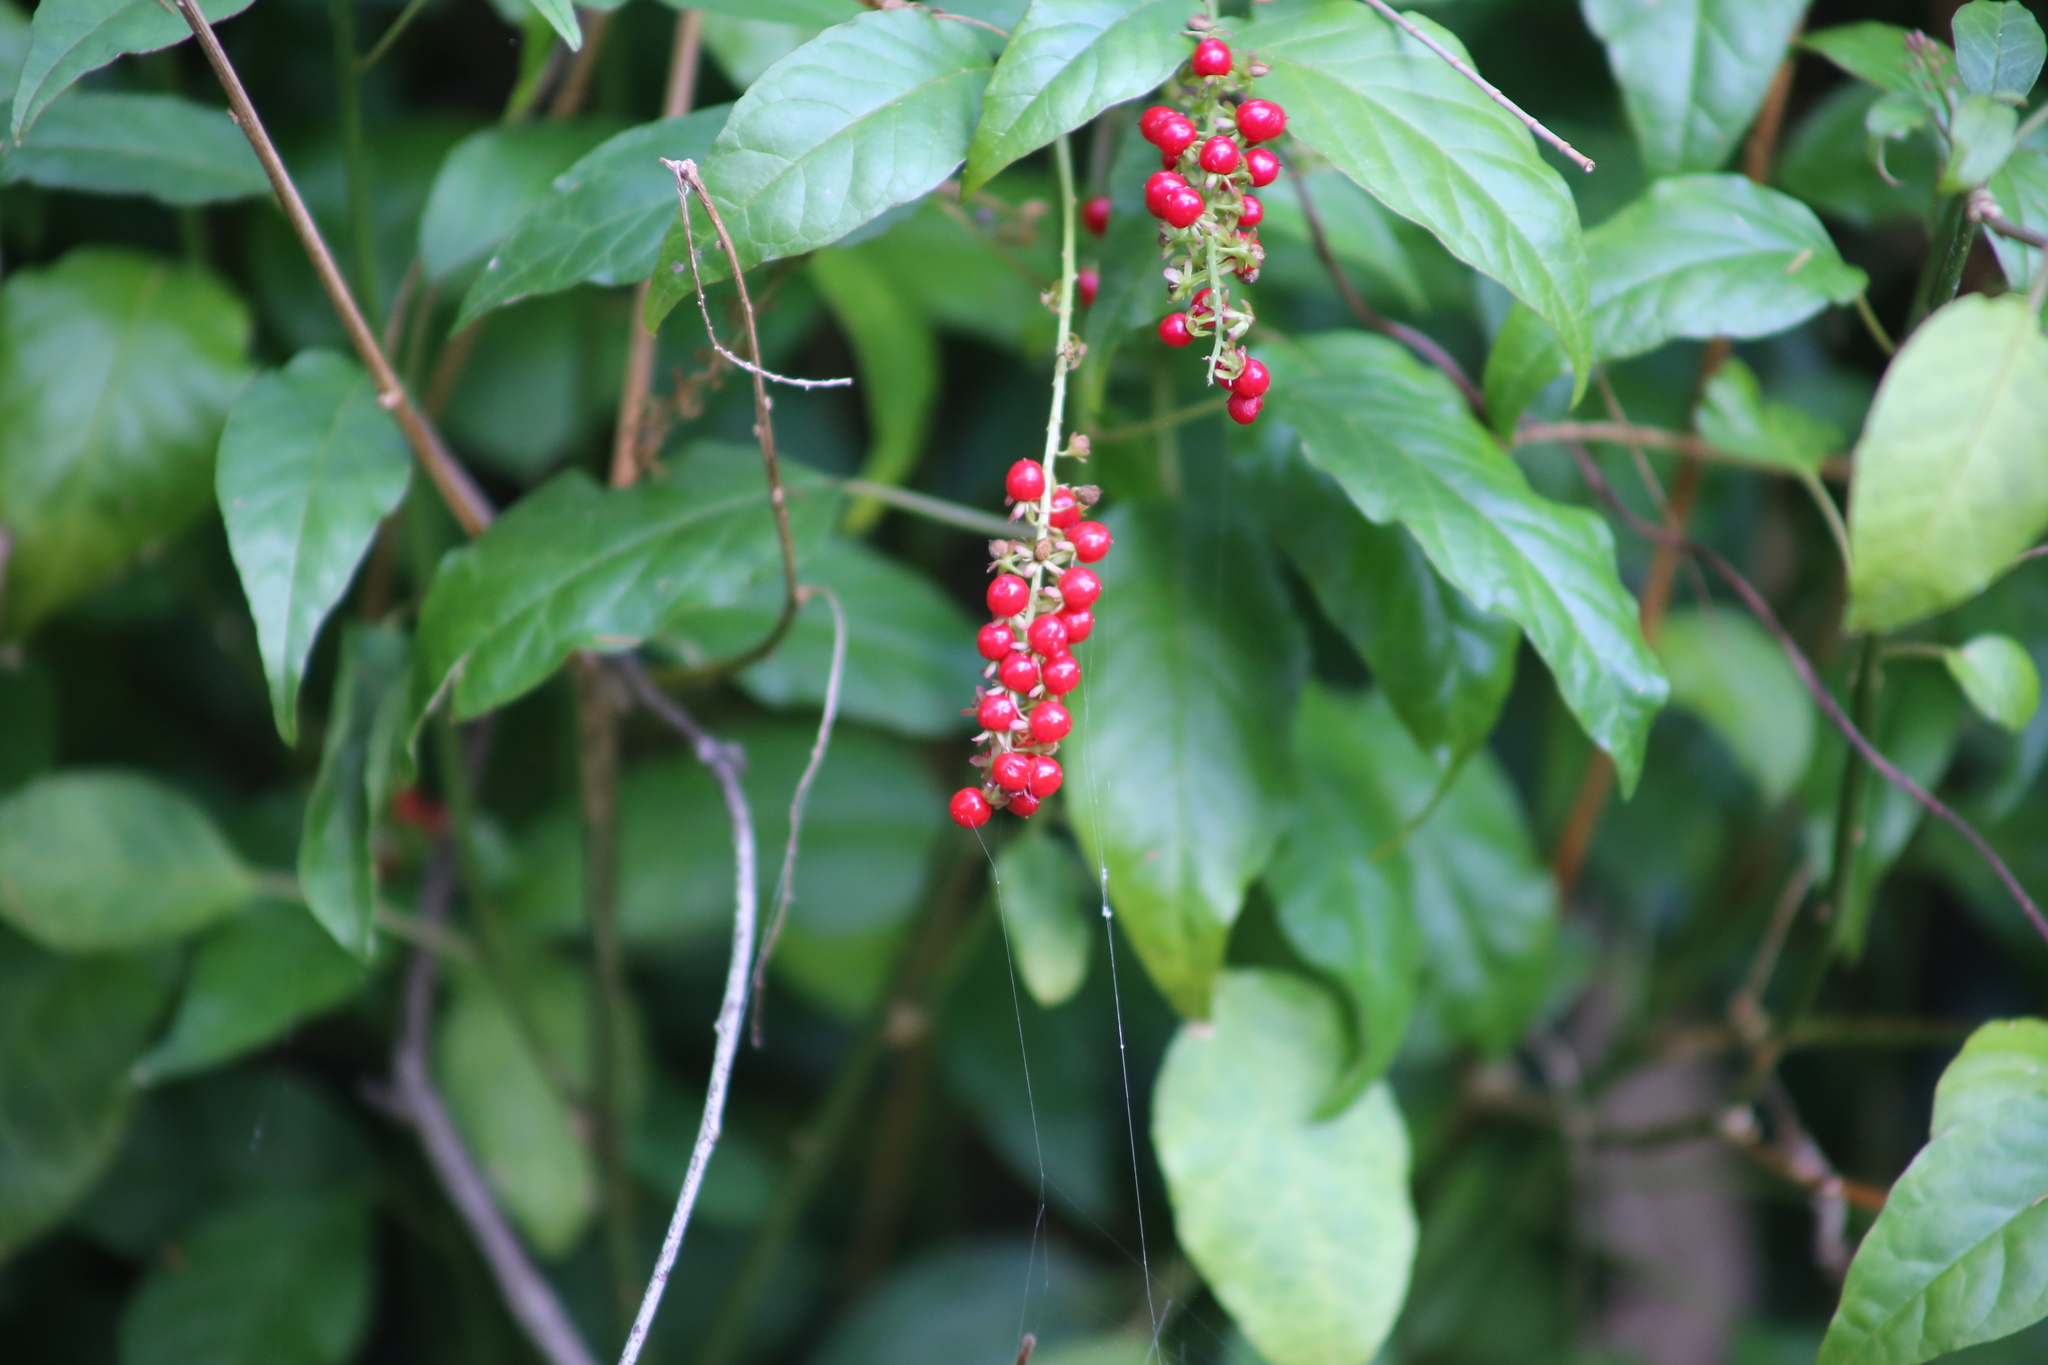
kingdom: Plantae
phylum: Tracheophyta
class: Magnoliopsida
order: Caryophyllales
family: Phytolaccaceae
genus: Rivina
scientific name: Rivina humilis
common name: Rougeplant
